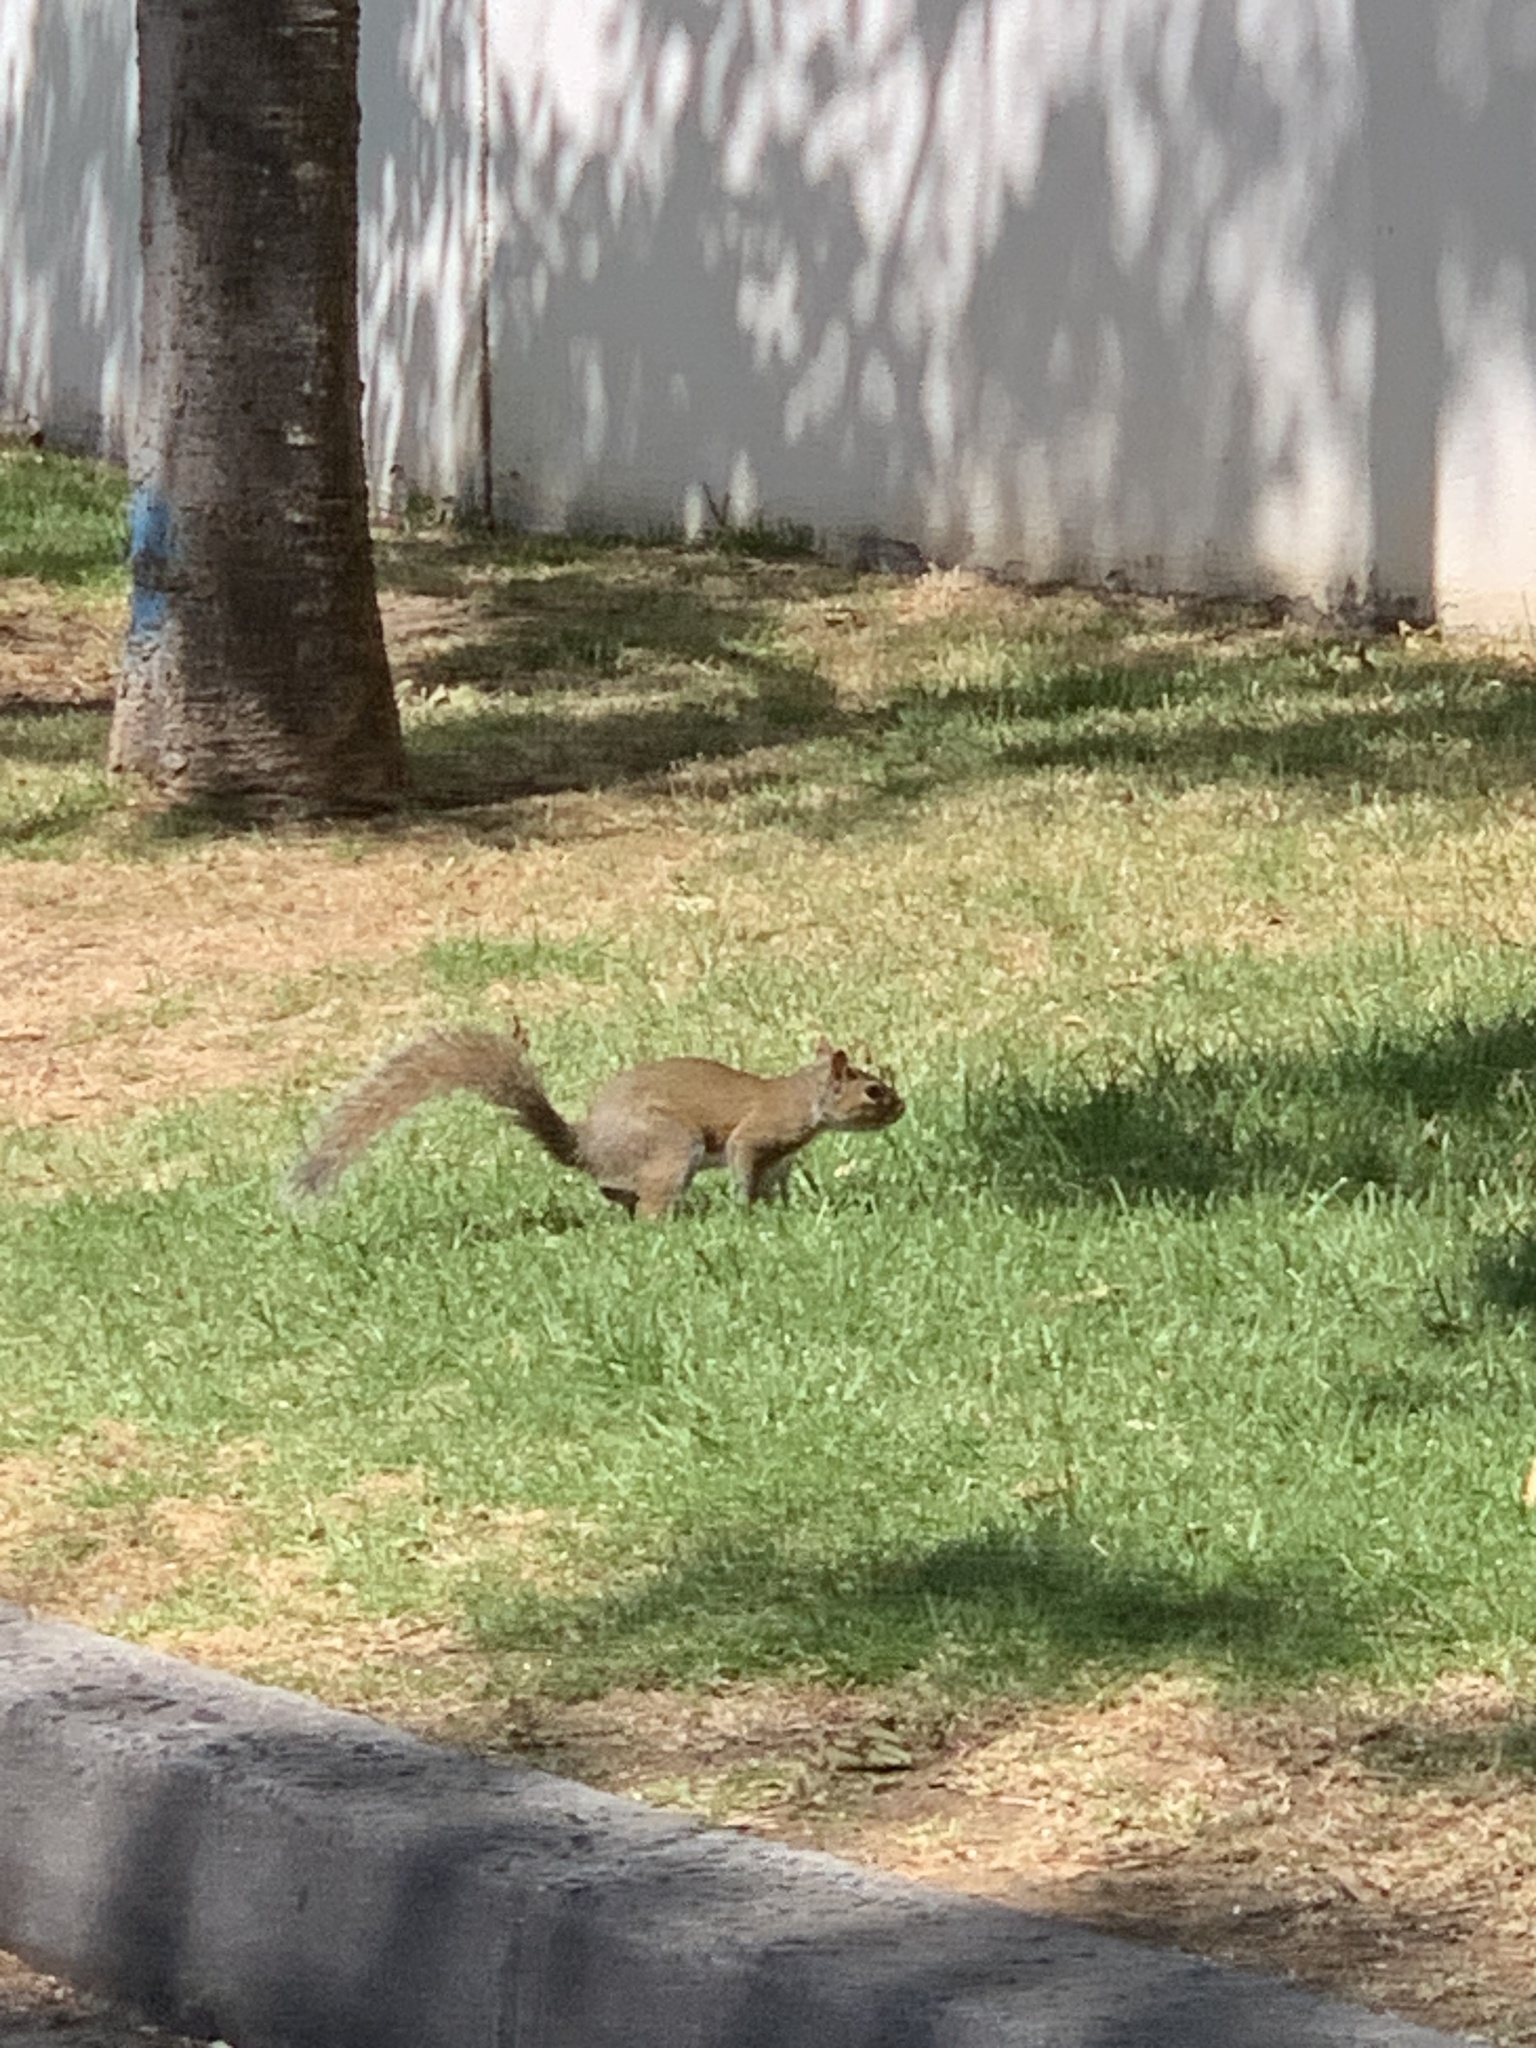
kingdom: Animalia
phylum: Chordata
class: Mammalia
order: Rodentia
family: Sciuridae
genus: Sciurus
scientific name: Sciurus carolinensis
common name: Eastern gray squirrel
